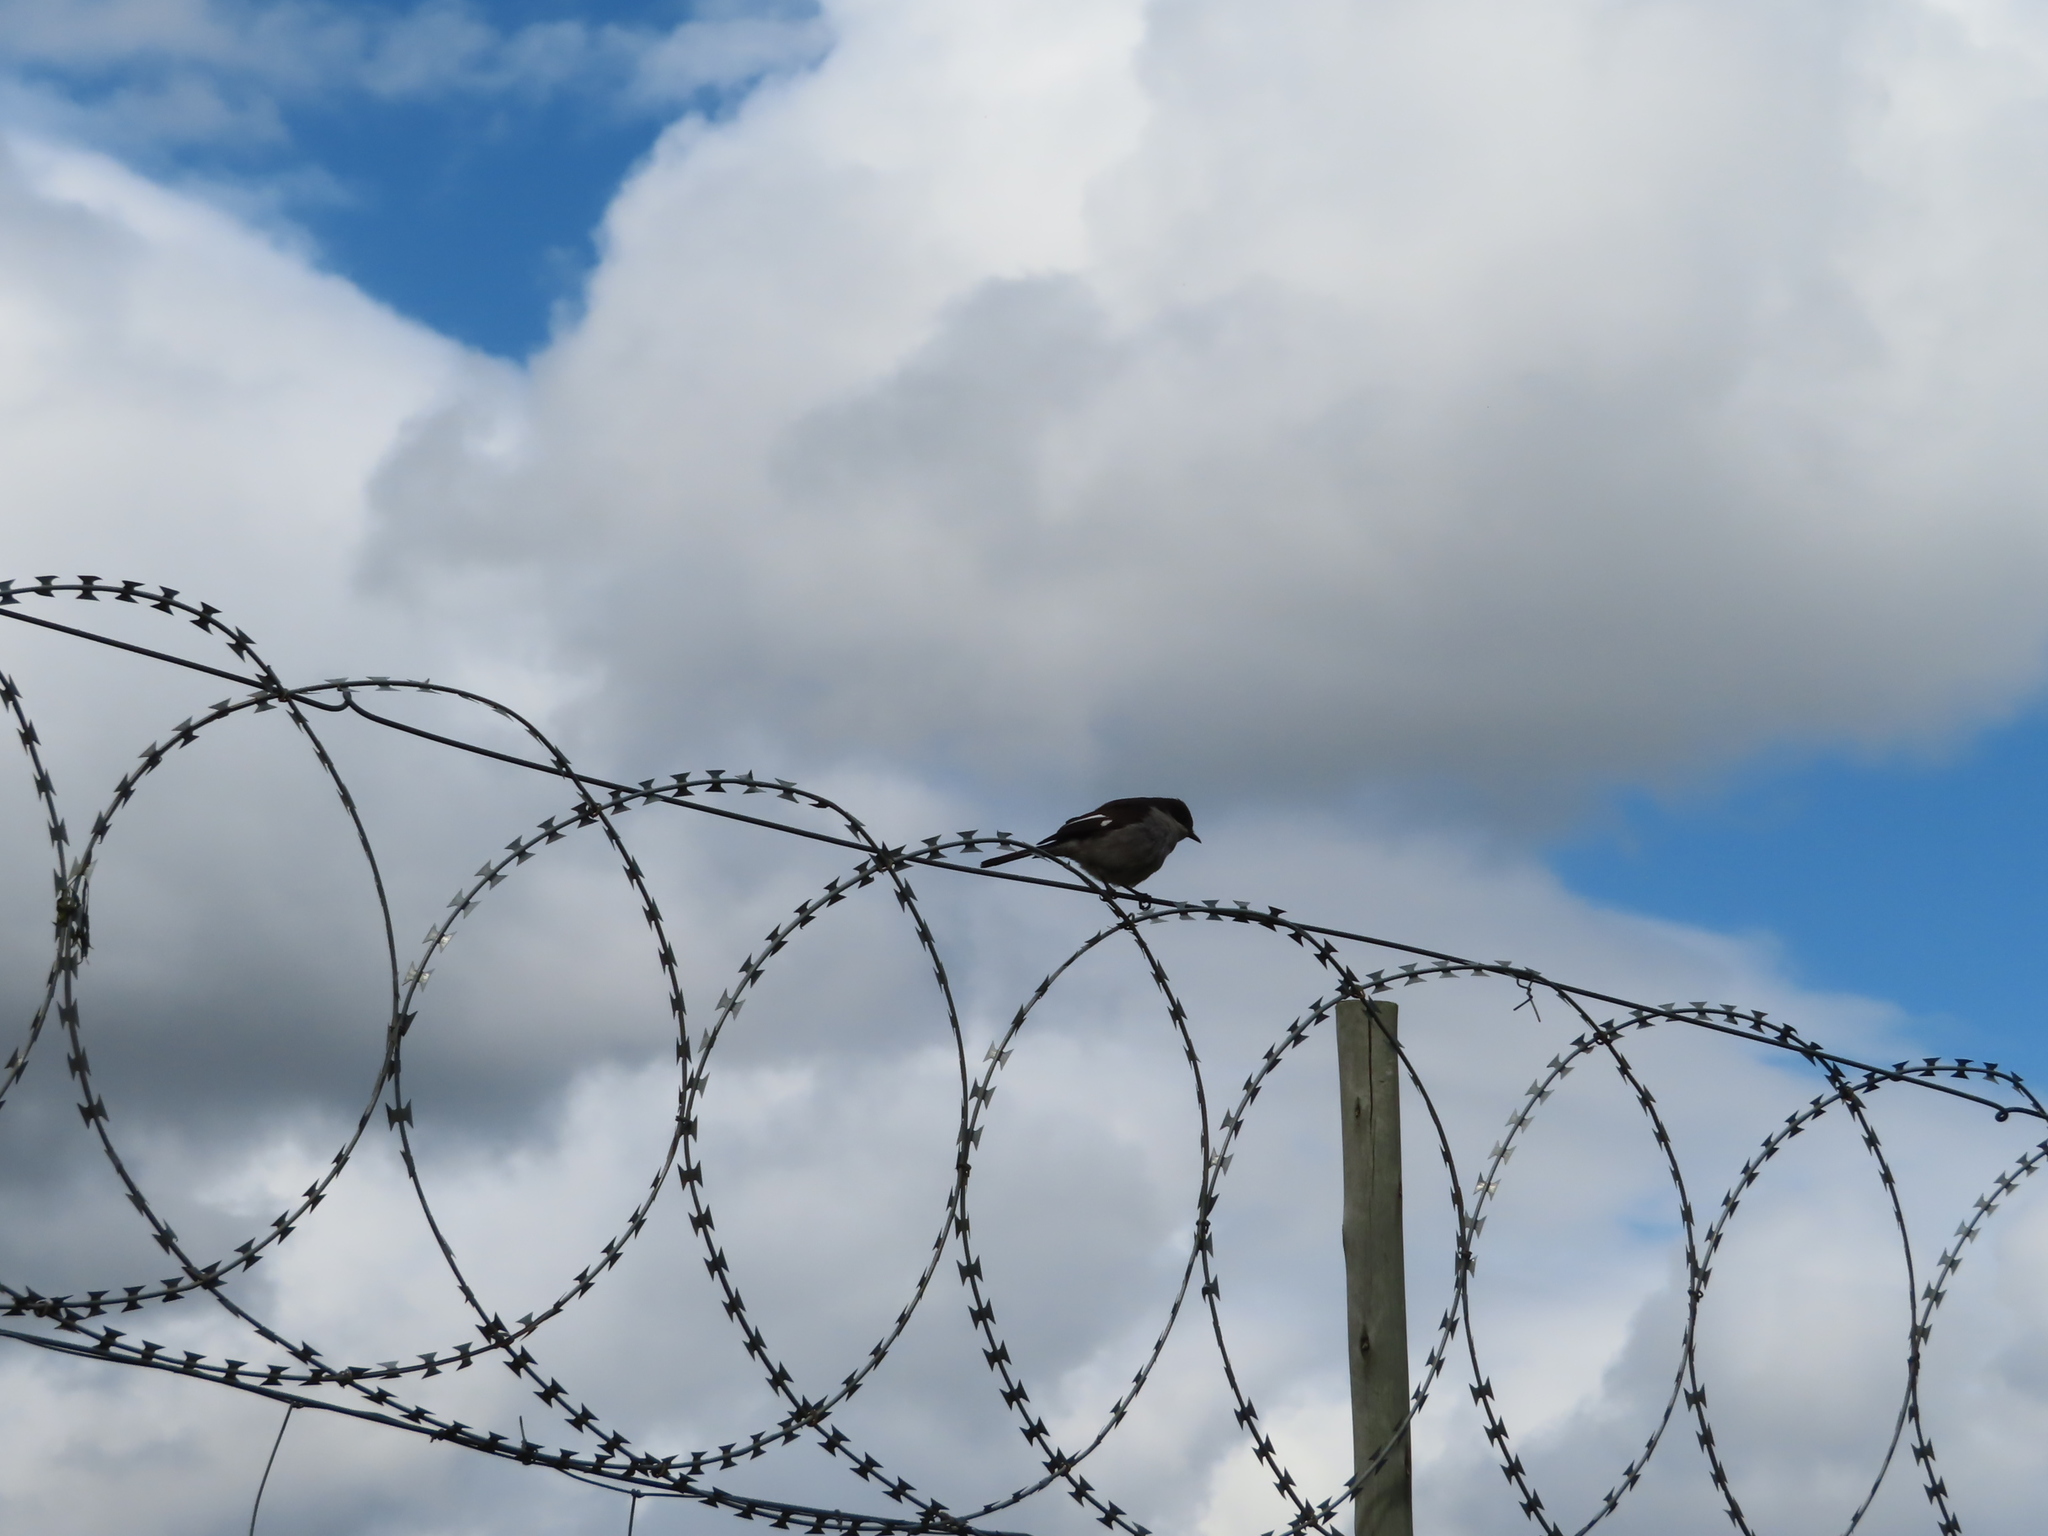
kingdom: Animalia
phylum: Chordata
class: Aves
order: Passeriformes
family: Muscicapidae
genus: Sigelus
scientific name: Sigelus silens
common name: Fiscal flycatcher
